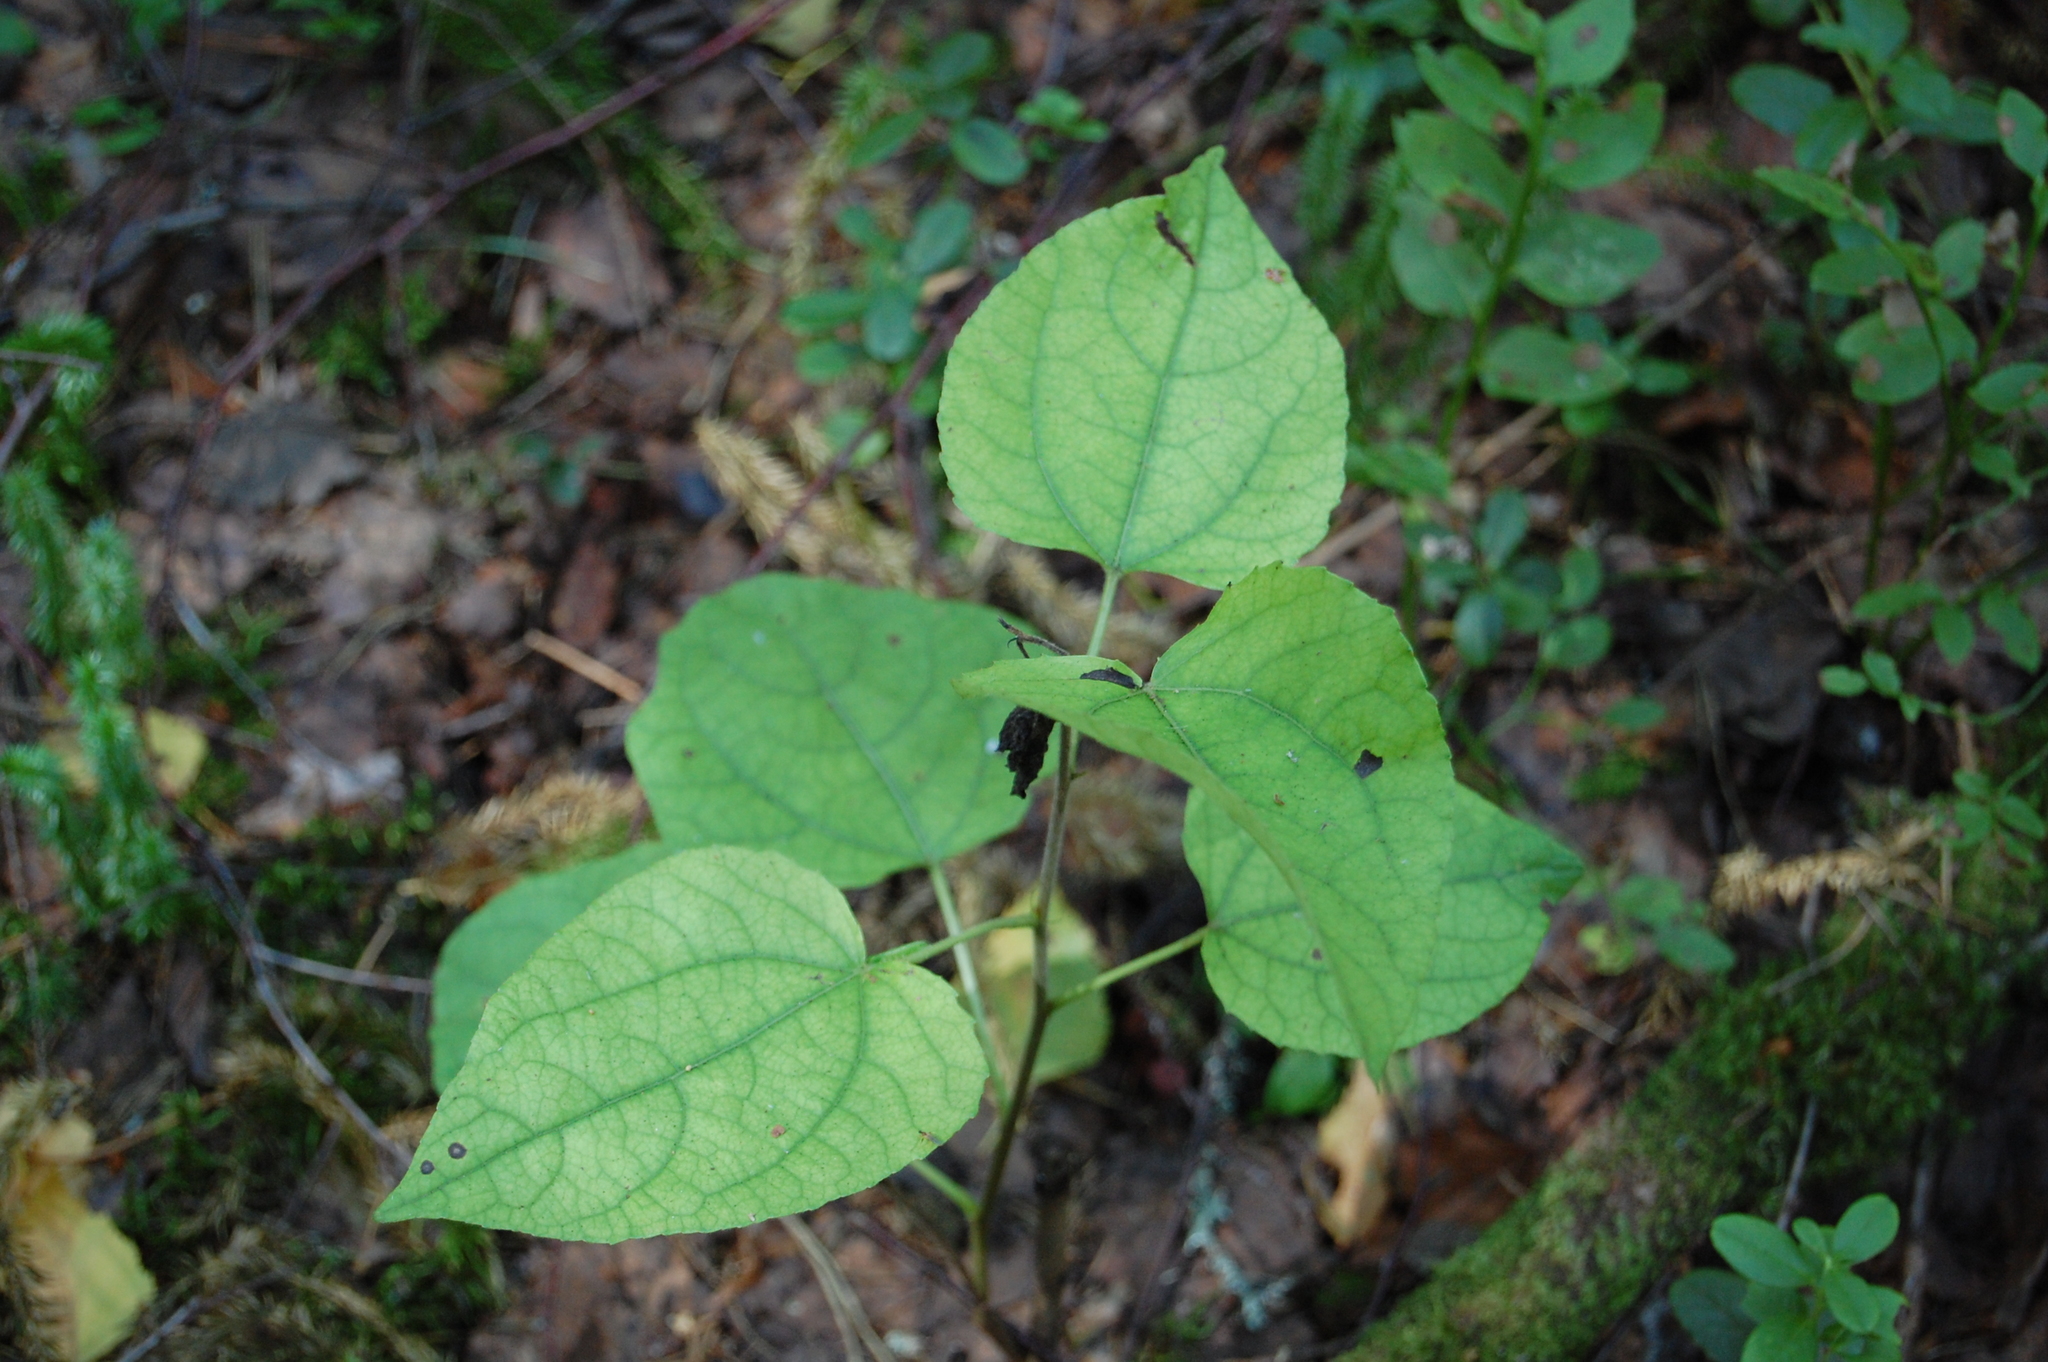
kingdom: Plantae
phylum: Tracheophyta
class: Magnoliopsida
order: Malpighiales
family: Salicaceae
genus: Populus
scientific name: Populus tremula
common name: European aspen
